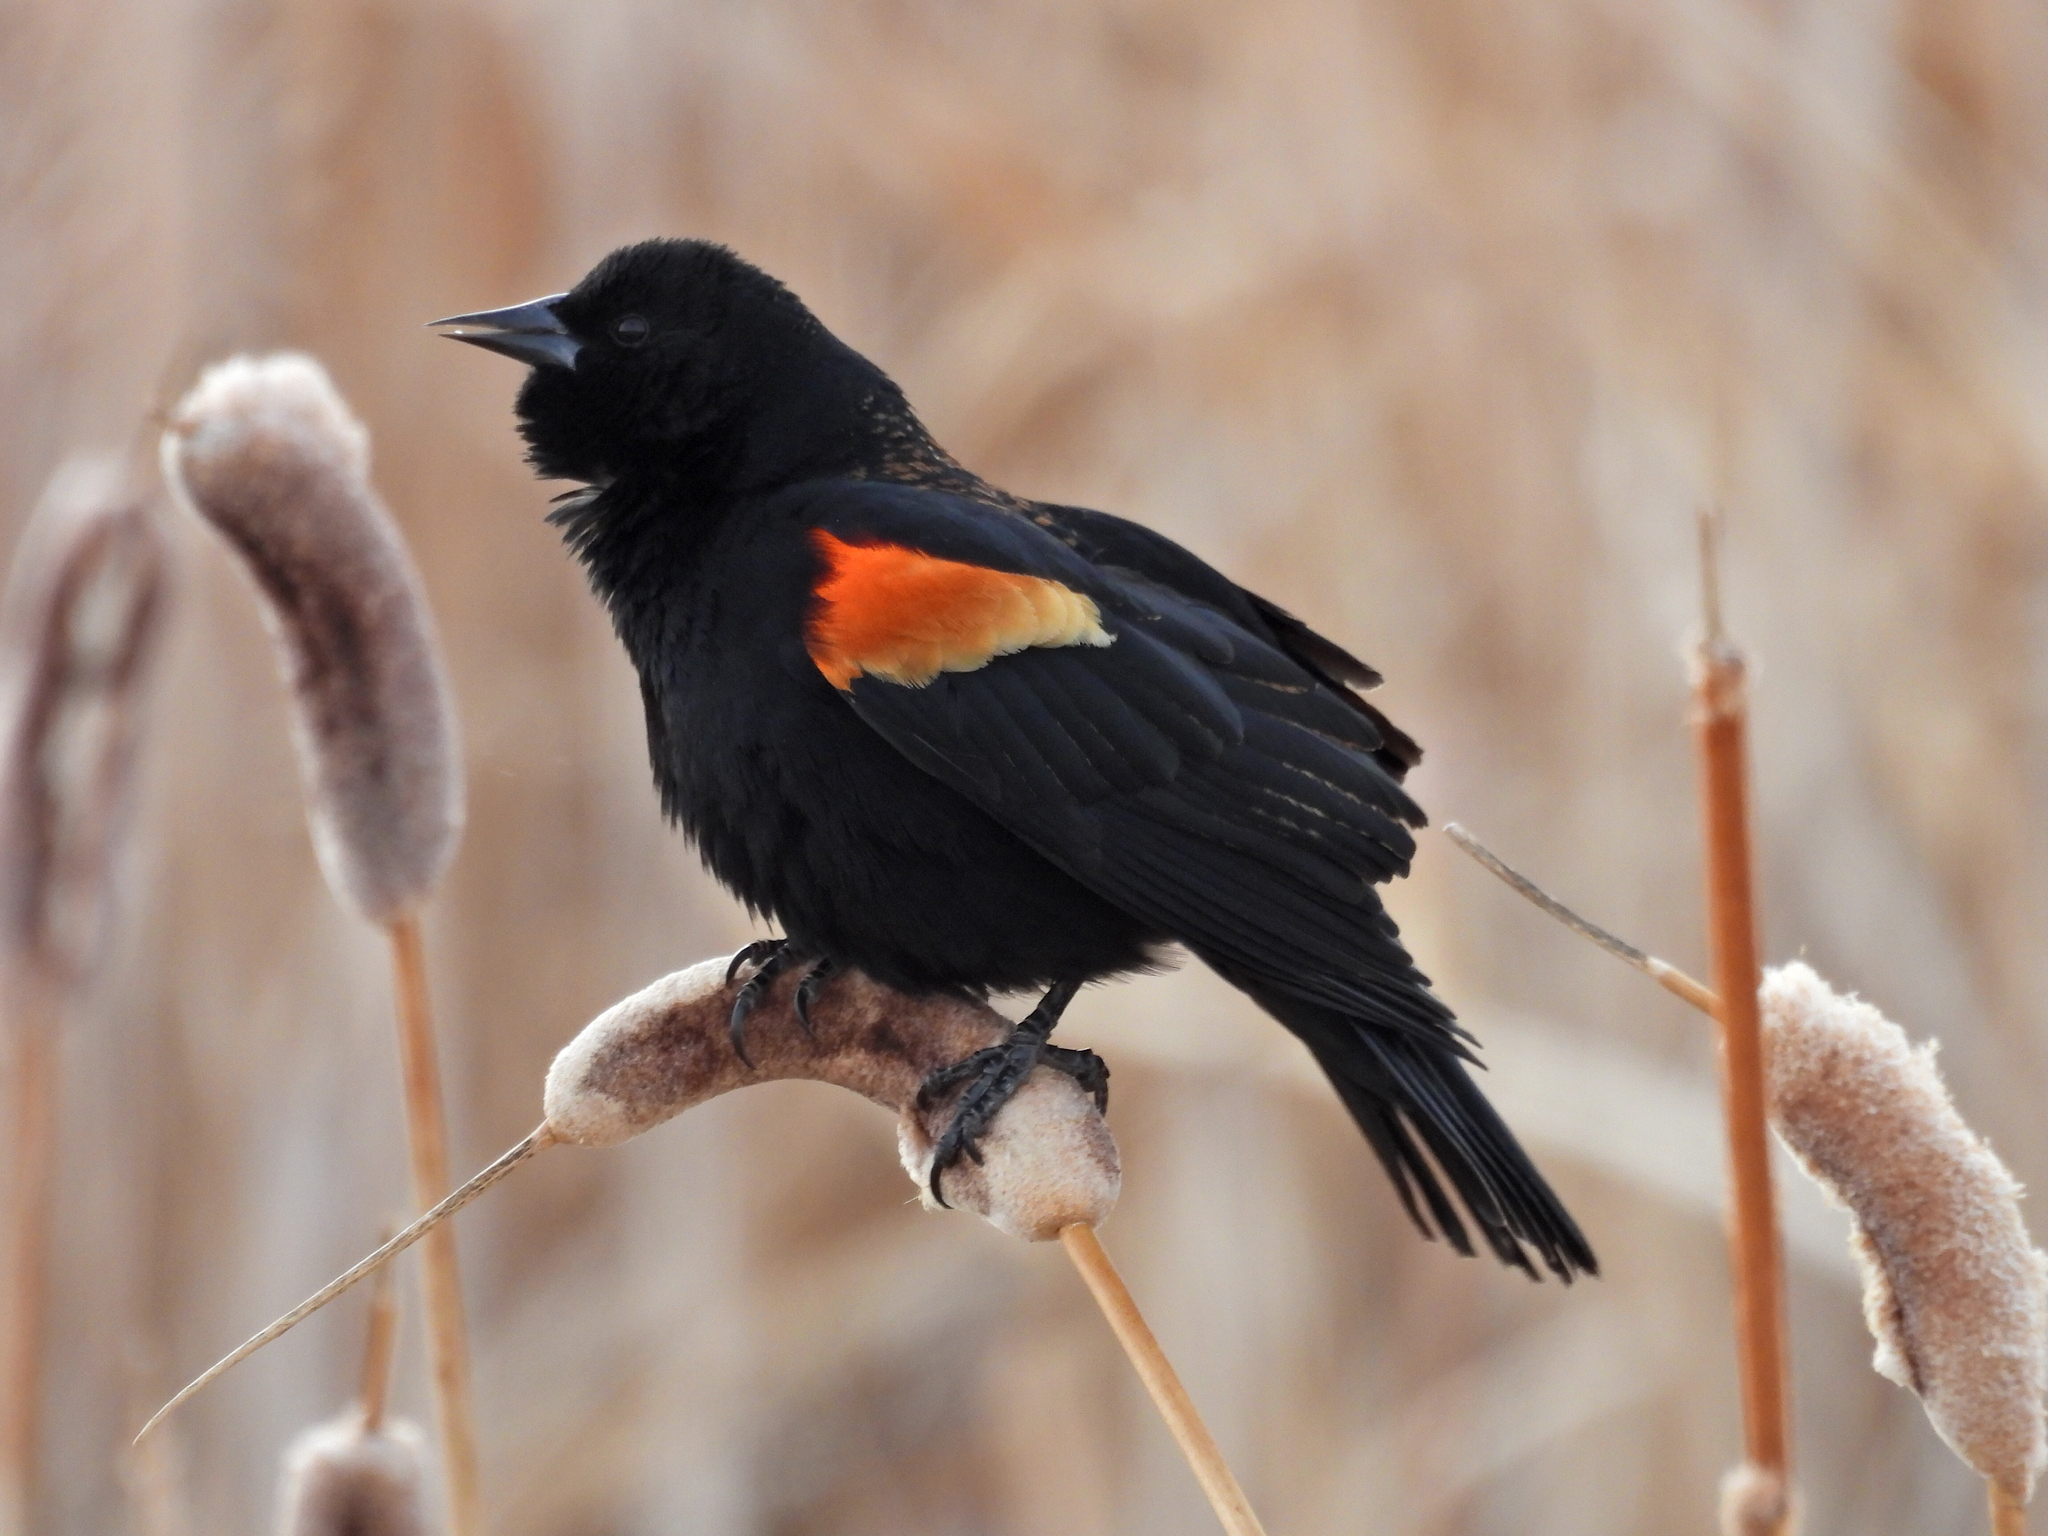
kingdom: Animalia
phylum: Chordata
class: Aves
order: Passeriformes
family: Icteridae
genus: Agelaius
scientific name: Agelaius phoeniceus
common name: Red-winged blackbird
